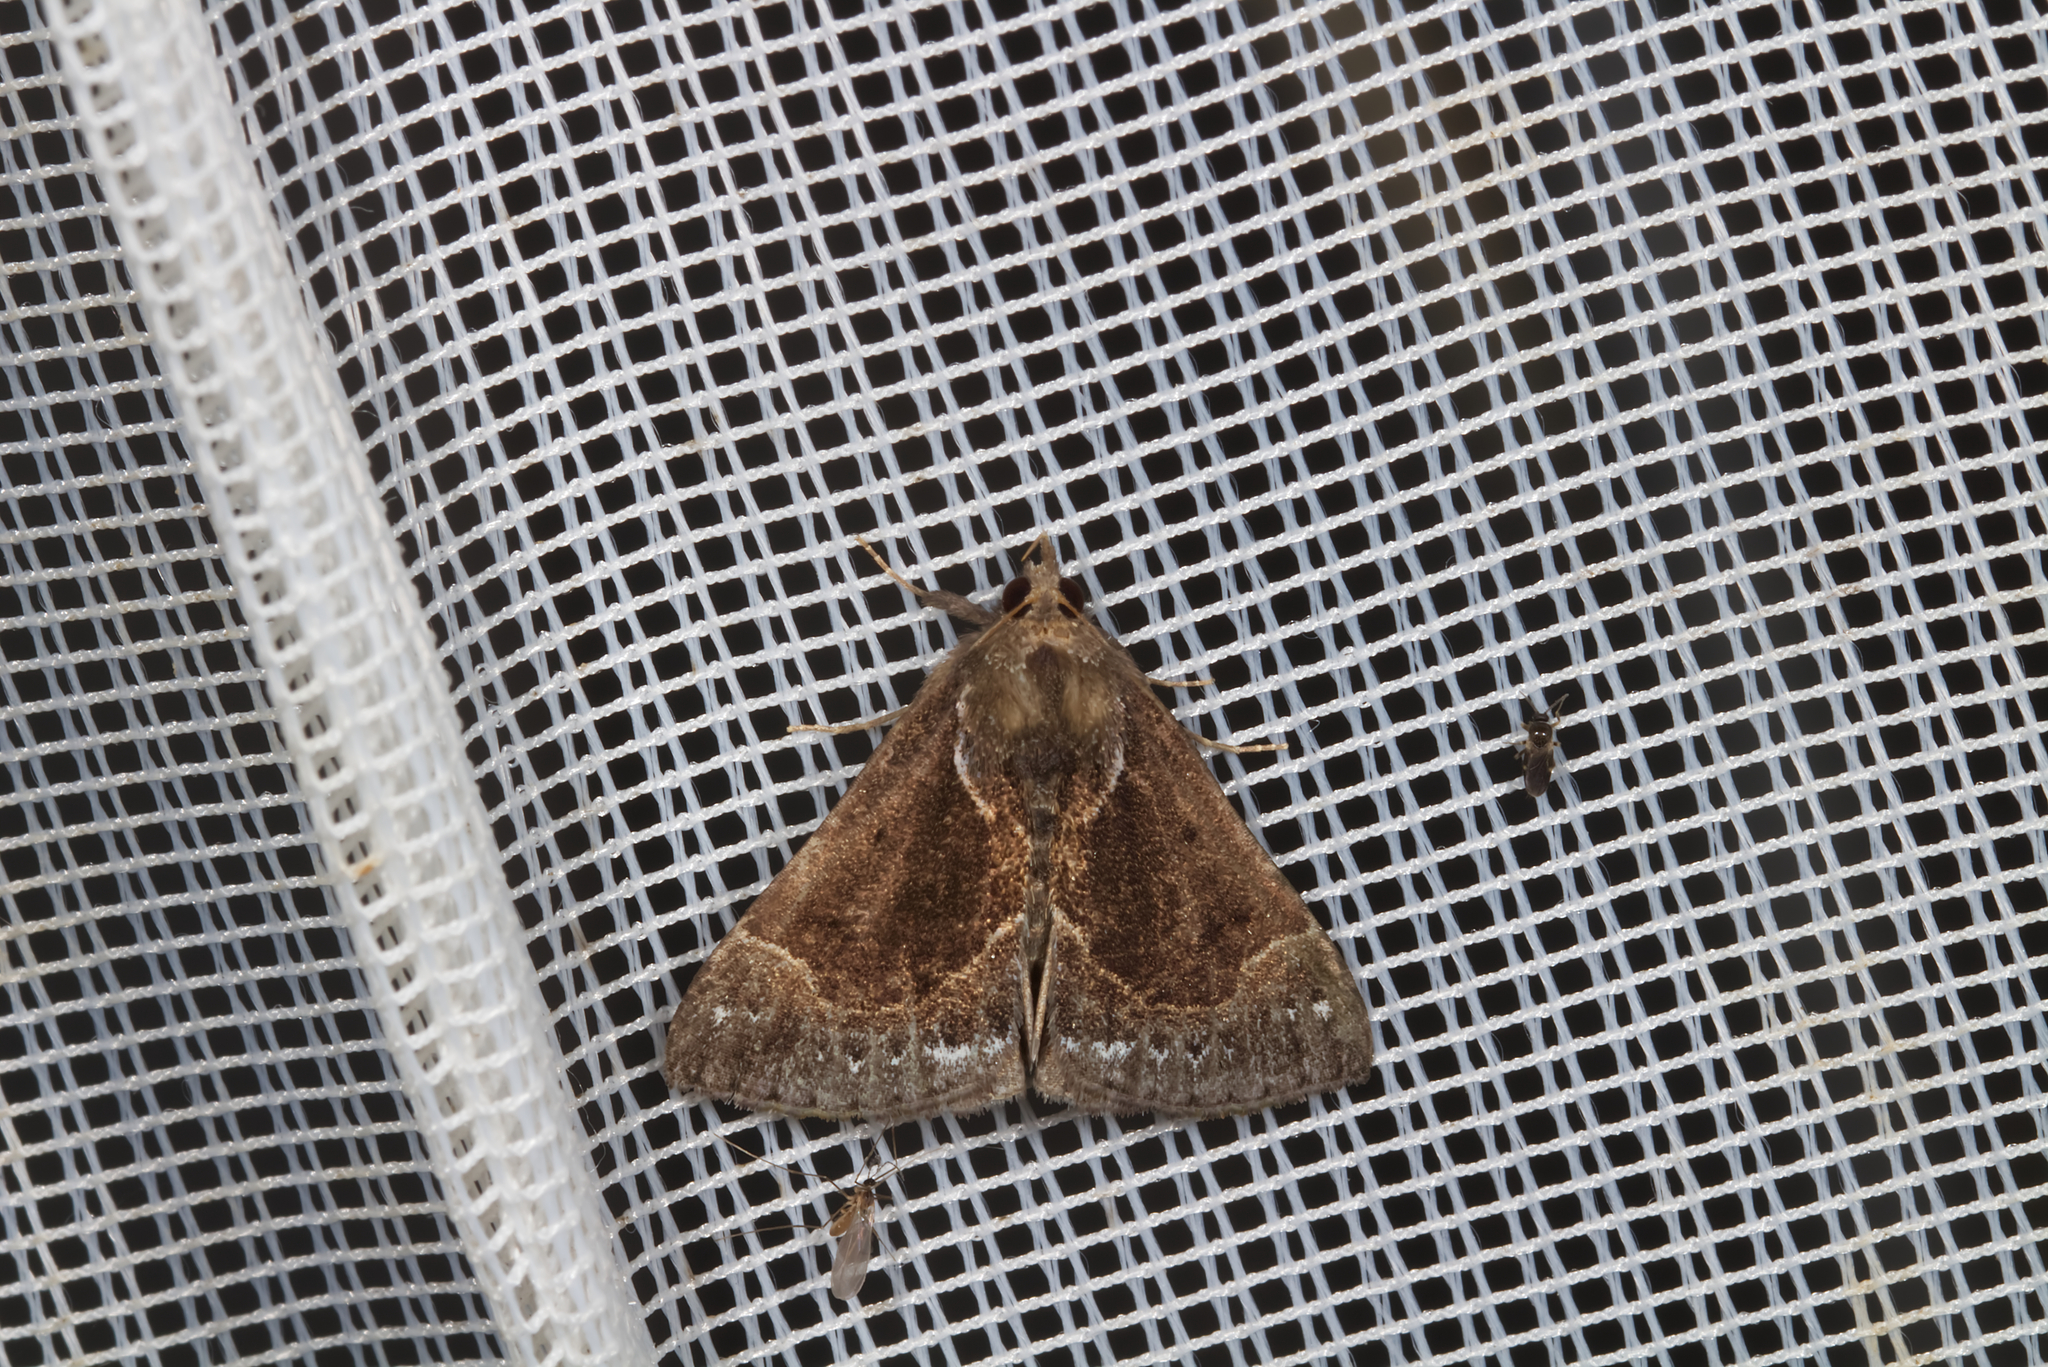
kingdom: Animalia
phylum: Arthropoda
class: Insecta
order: Lepidoptera
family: Erebidae
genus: Hypena
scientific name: Hypena crassalis
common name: Beautiful snout
